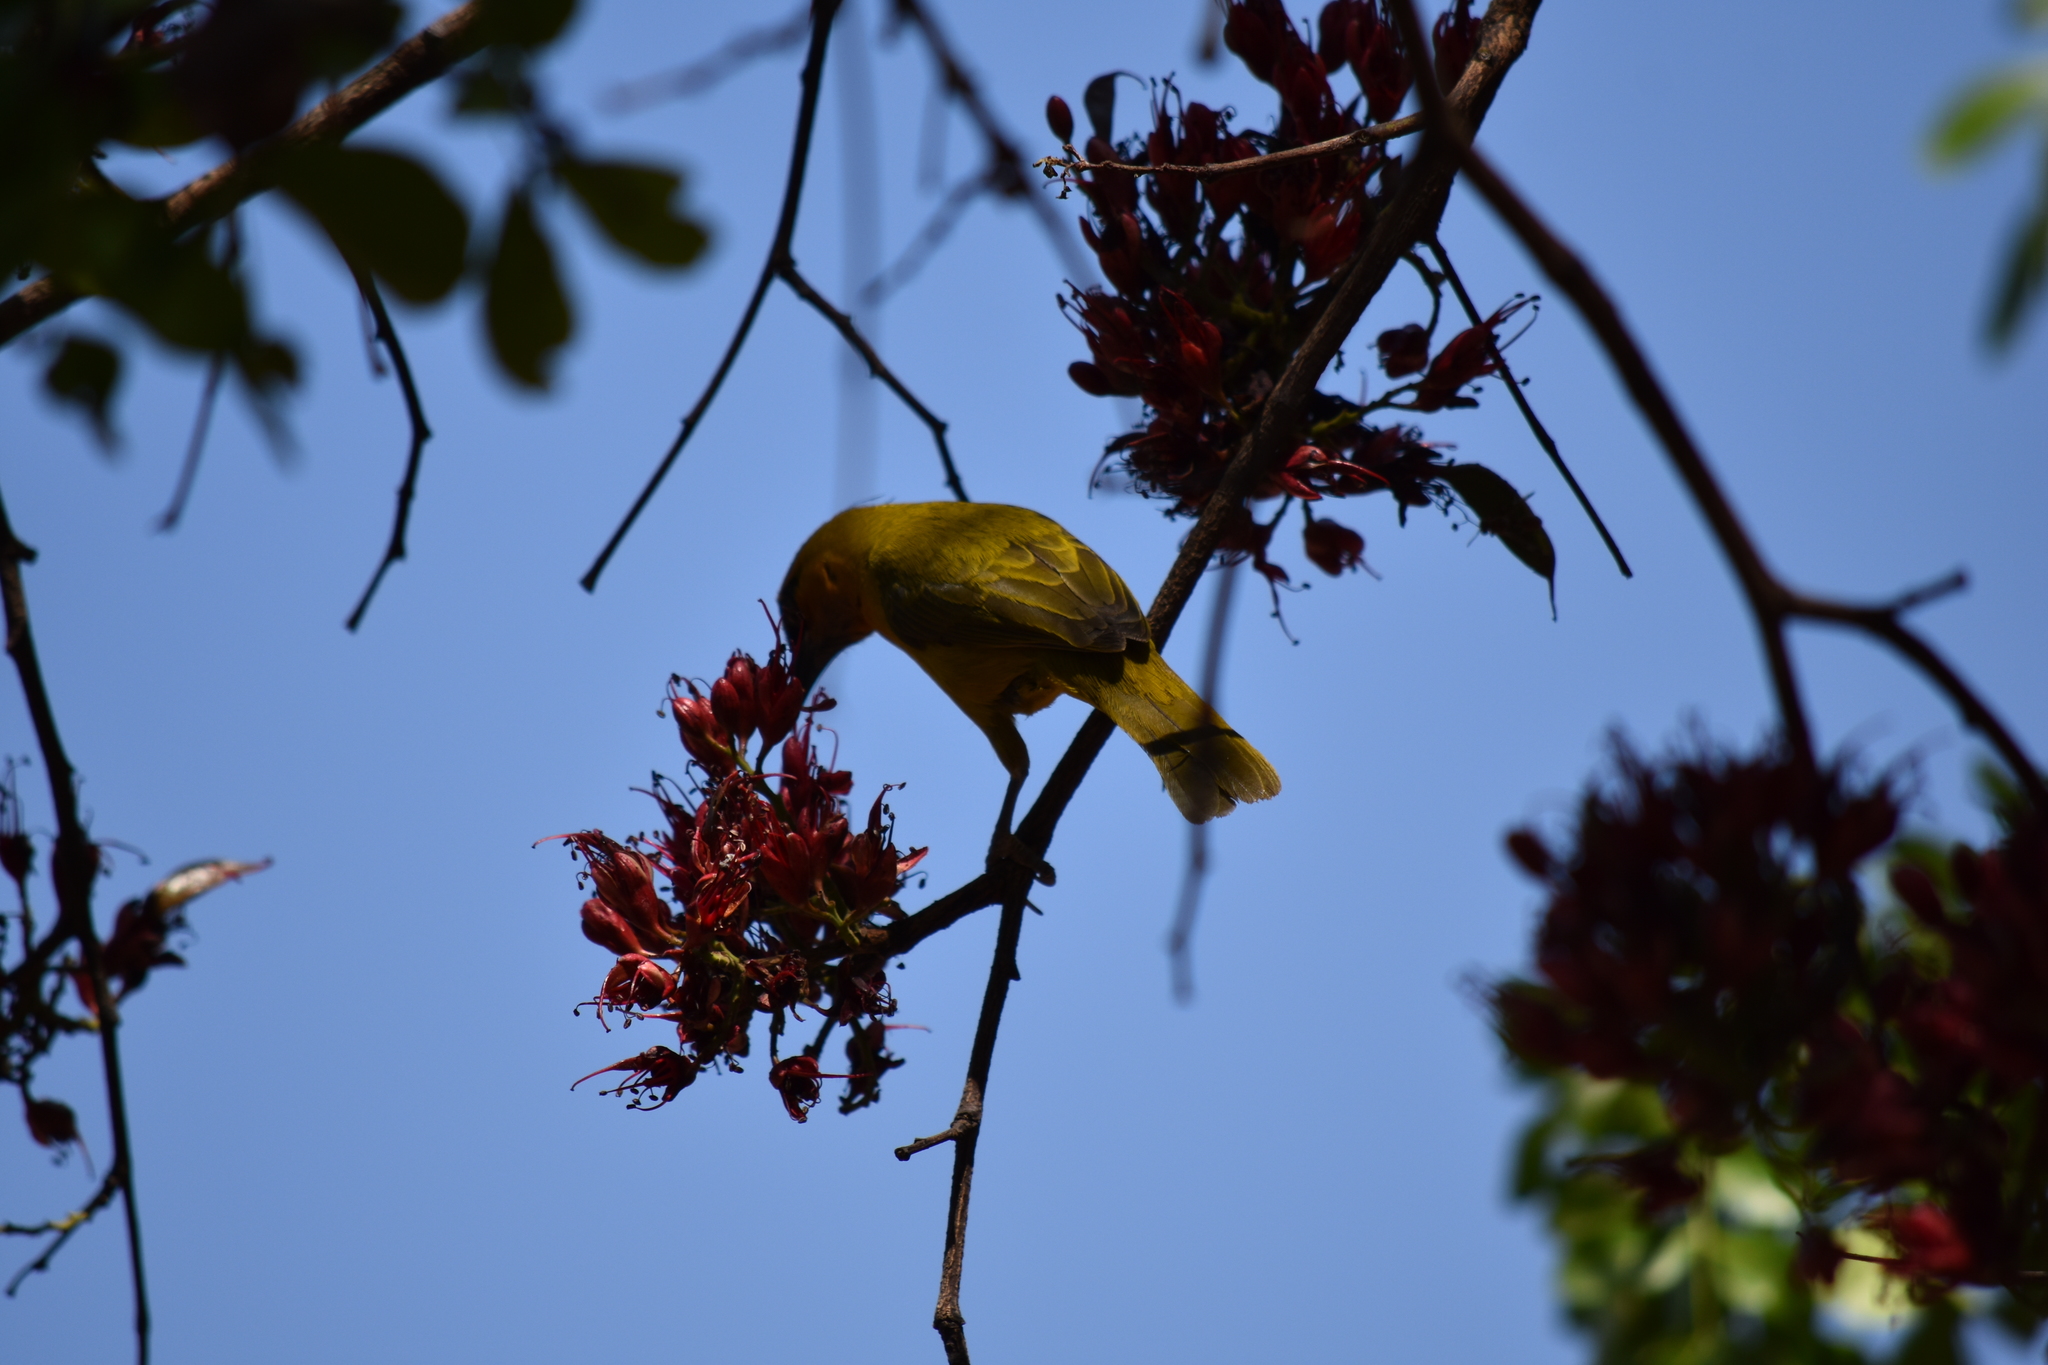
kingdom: Animalia
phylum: Chordata
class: Aves
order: Passeriformes
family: Ploceidae
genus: Ploceus
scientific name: Ploceus ocularis
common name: Spectacled weaver
